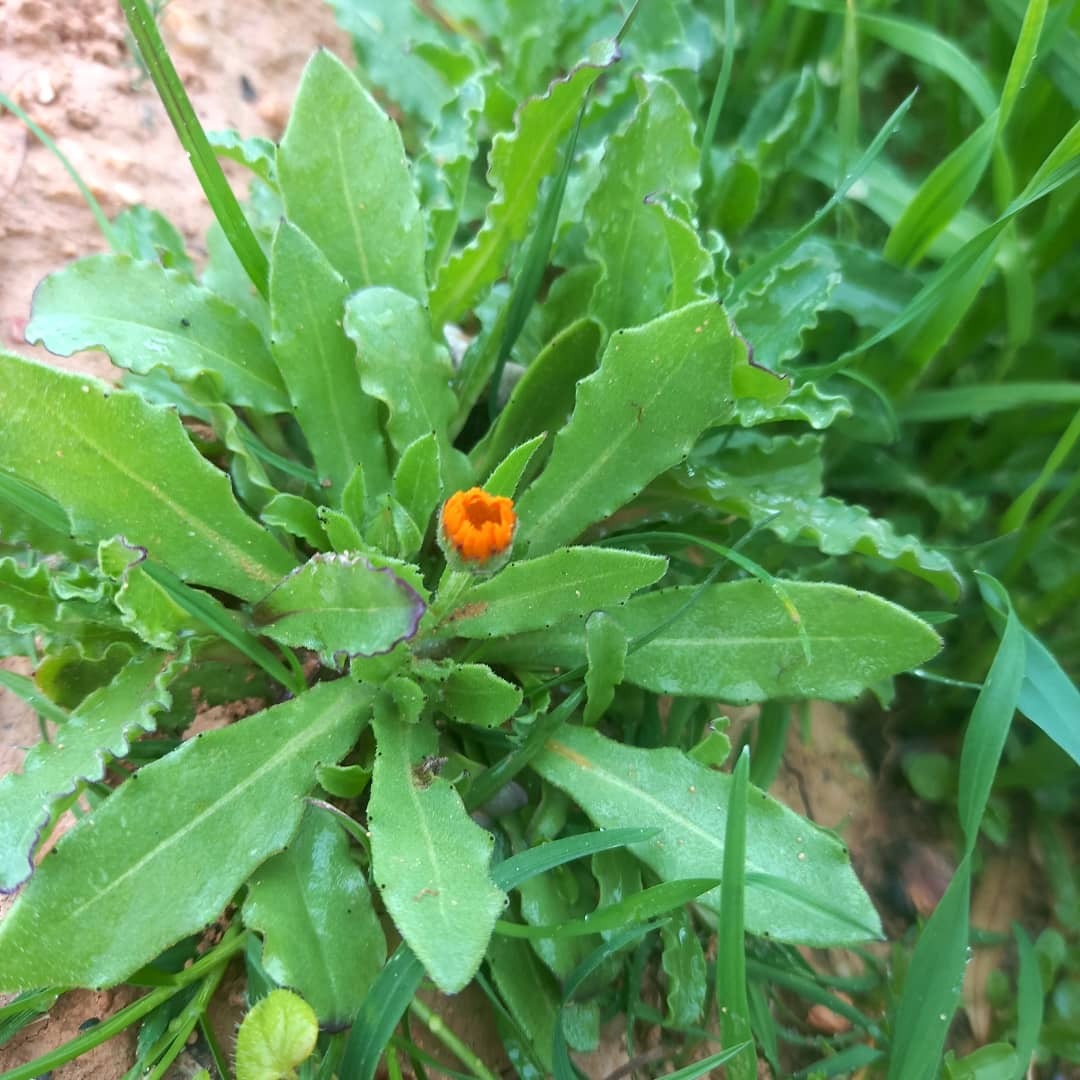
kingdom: Plantae
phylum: Tracheophyta
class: Magnoliopsida
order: Asterales
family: Asteraceae
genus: Calendula
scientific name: Calendula arvensis
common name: Field marigold
